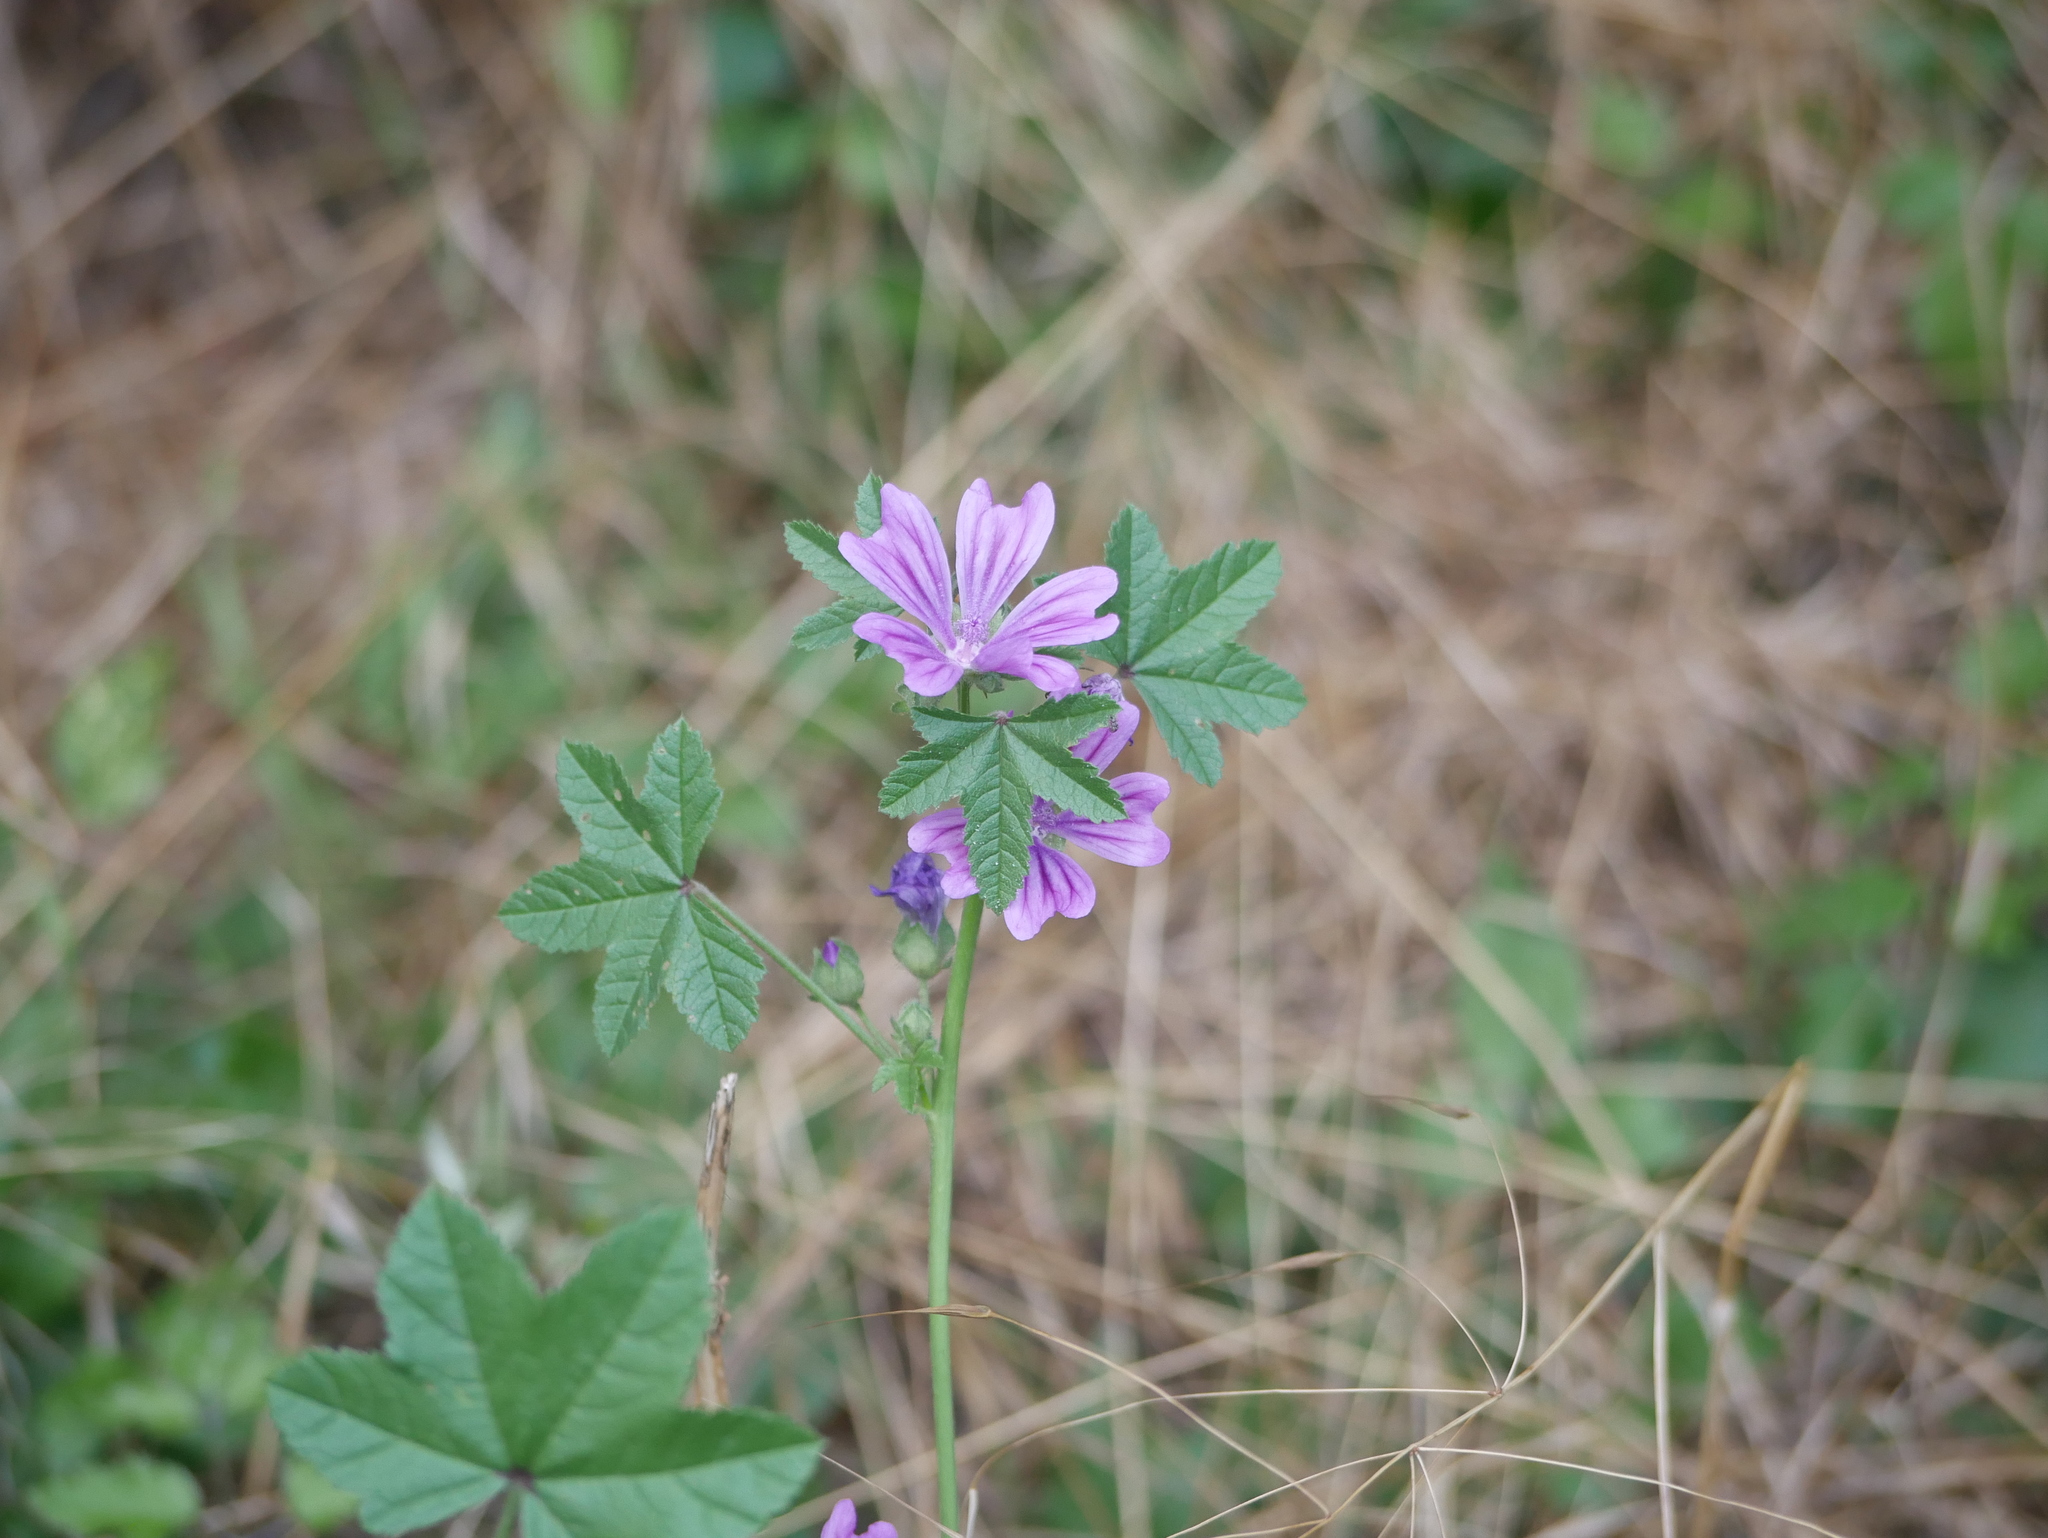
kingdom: Plantae
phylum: Tracheophyta
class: Magnoliopsida
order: Malvales
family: Malvaceae
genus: Malva
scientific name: Malva sylvestris
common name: Common mallow
